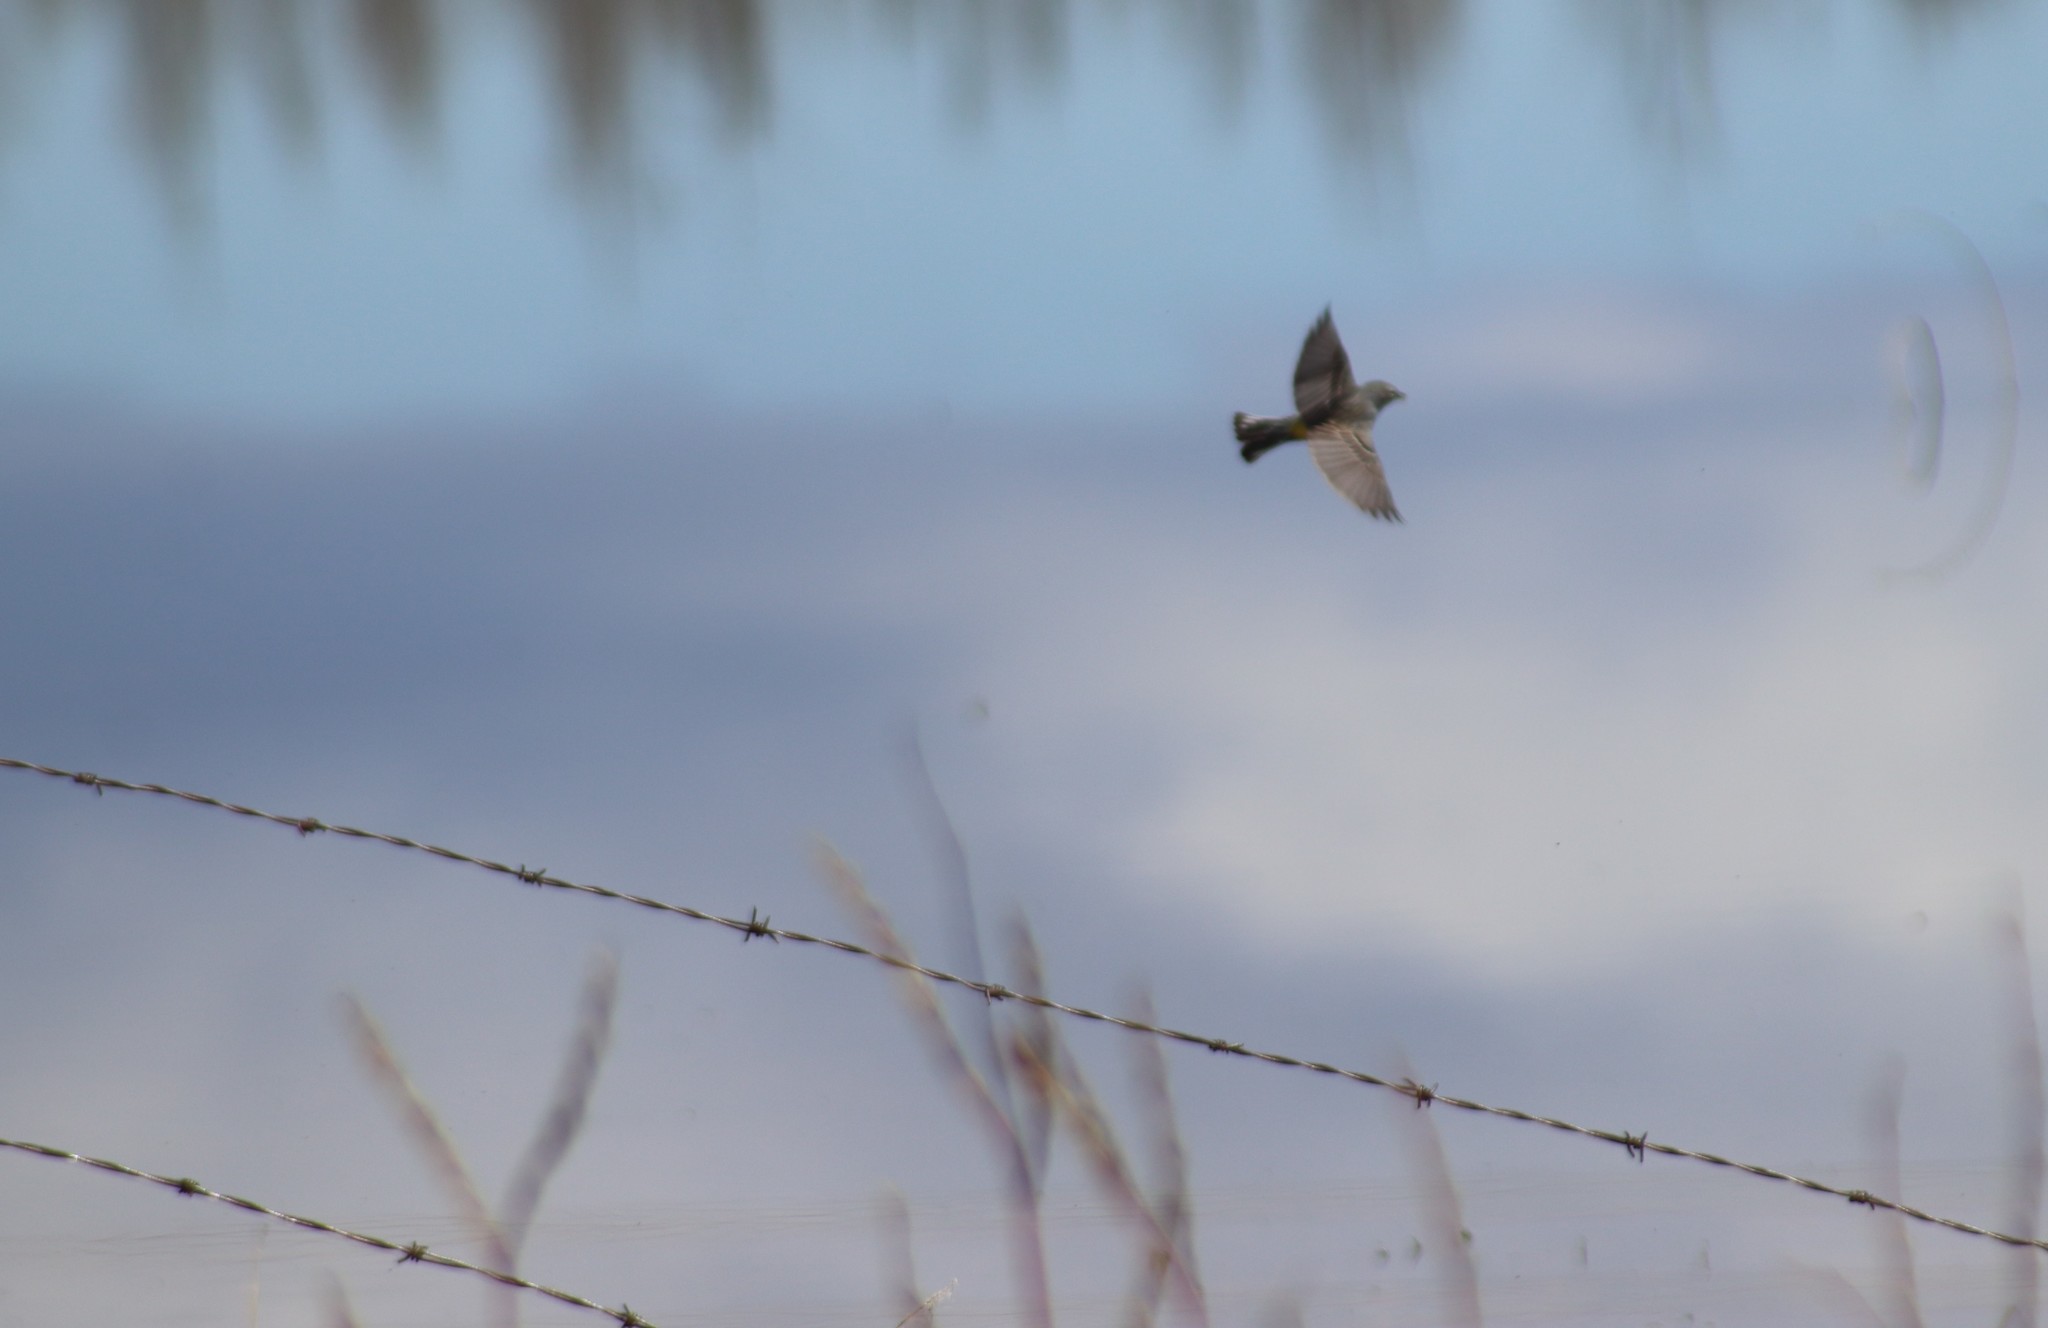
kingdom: Animalia
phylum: Chordata
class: Aves
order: Passeriformes
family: Parulidae
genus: Setophaga
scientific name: Setophaga coronata
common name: Myrtle warbler
